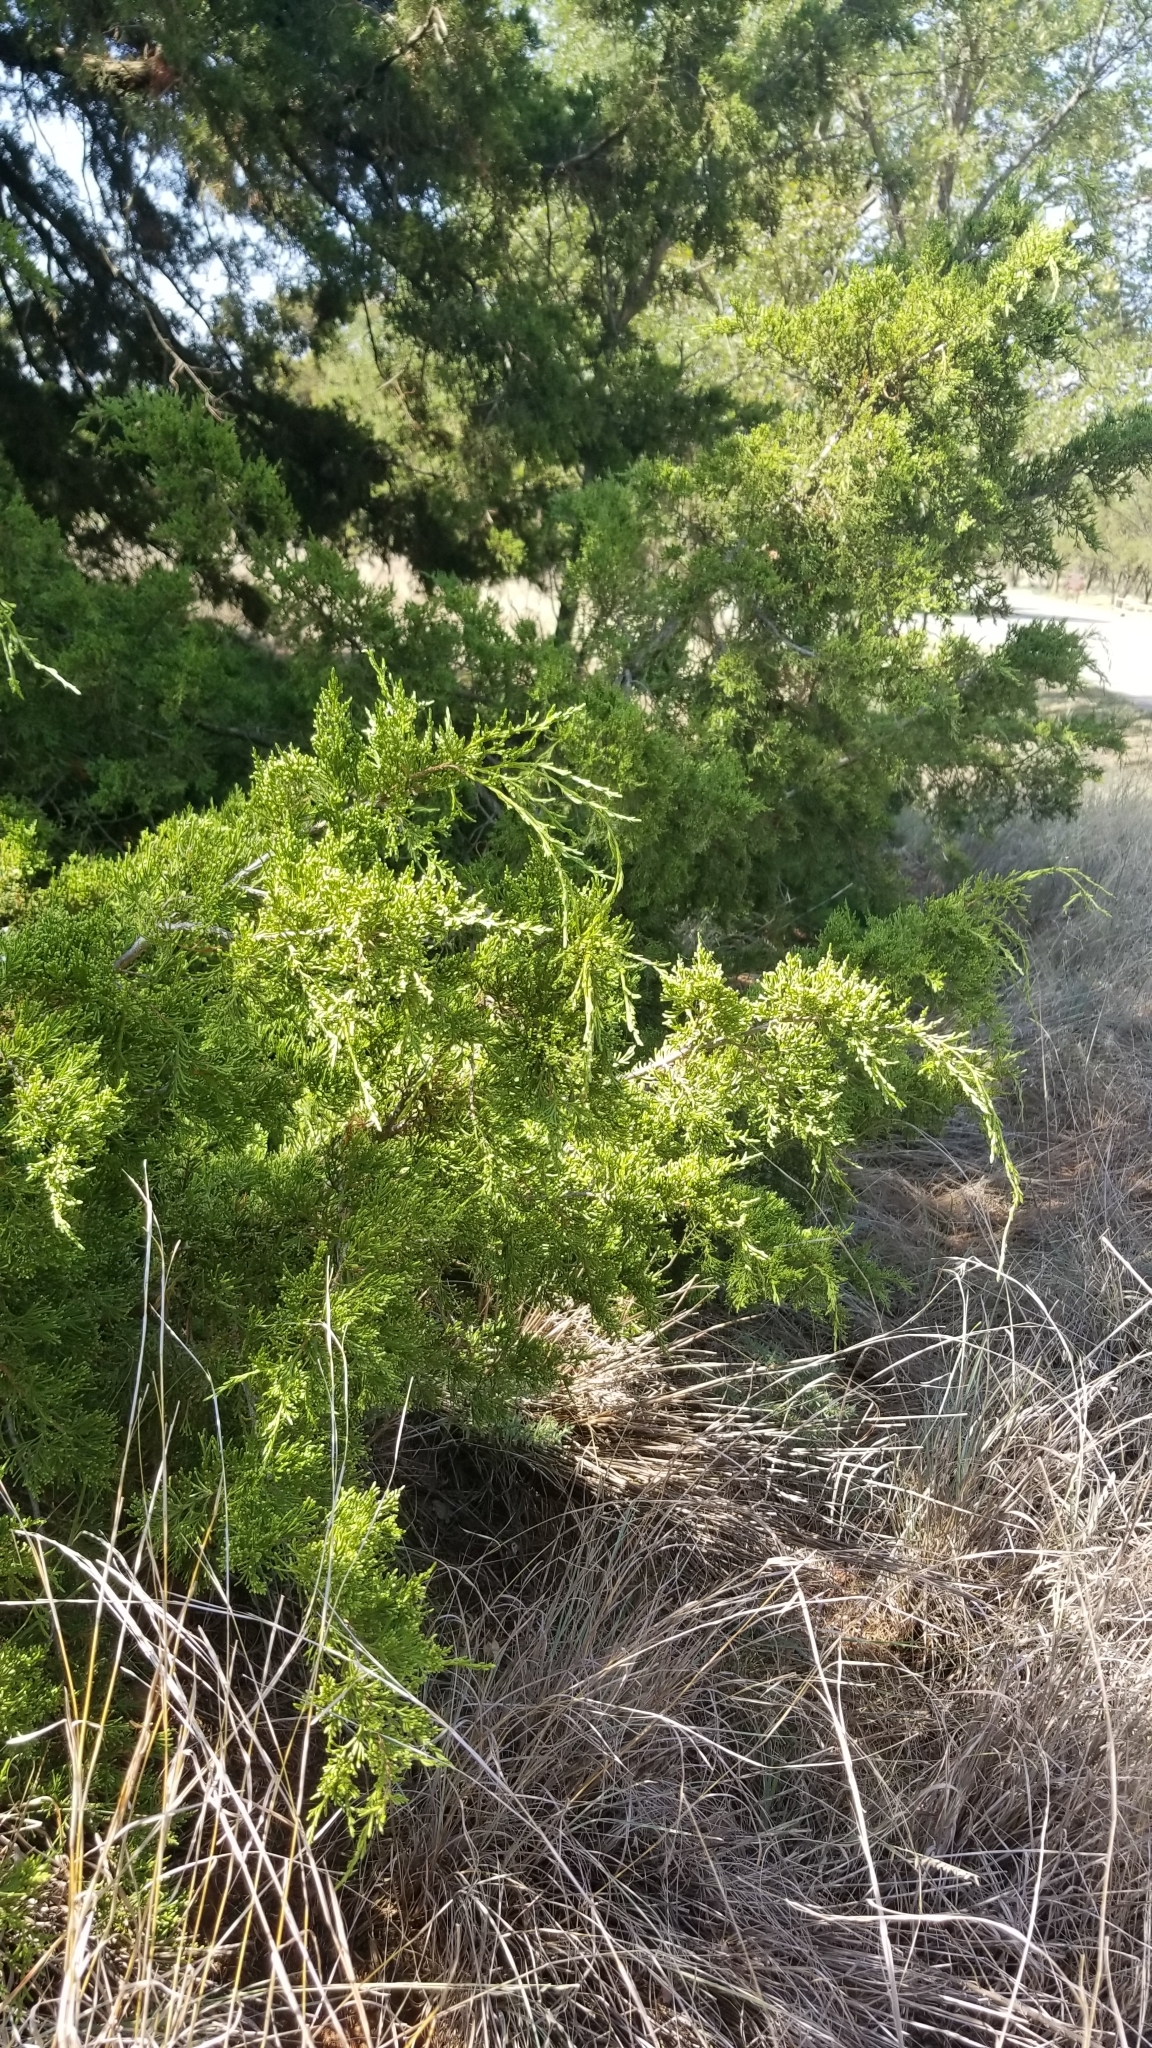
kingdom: Plantae
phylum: Tracheophyta
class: Pinopsida
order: Pinales
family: Cupressaceae
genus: Juniperus
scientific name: Juniperus virginiana
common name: Red juniper
